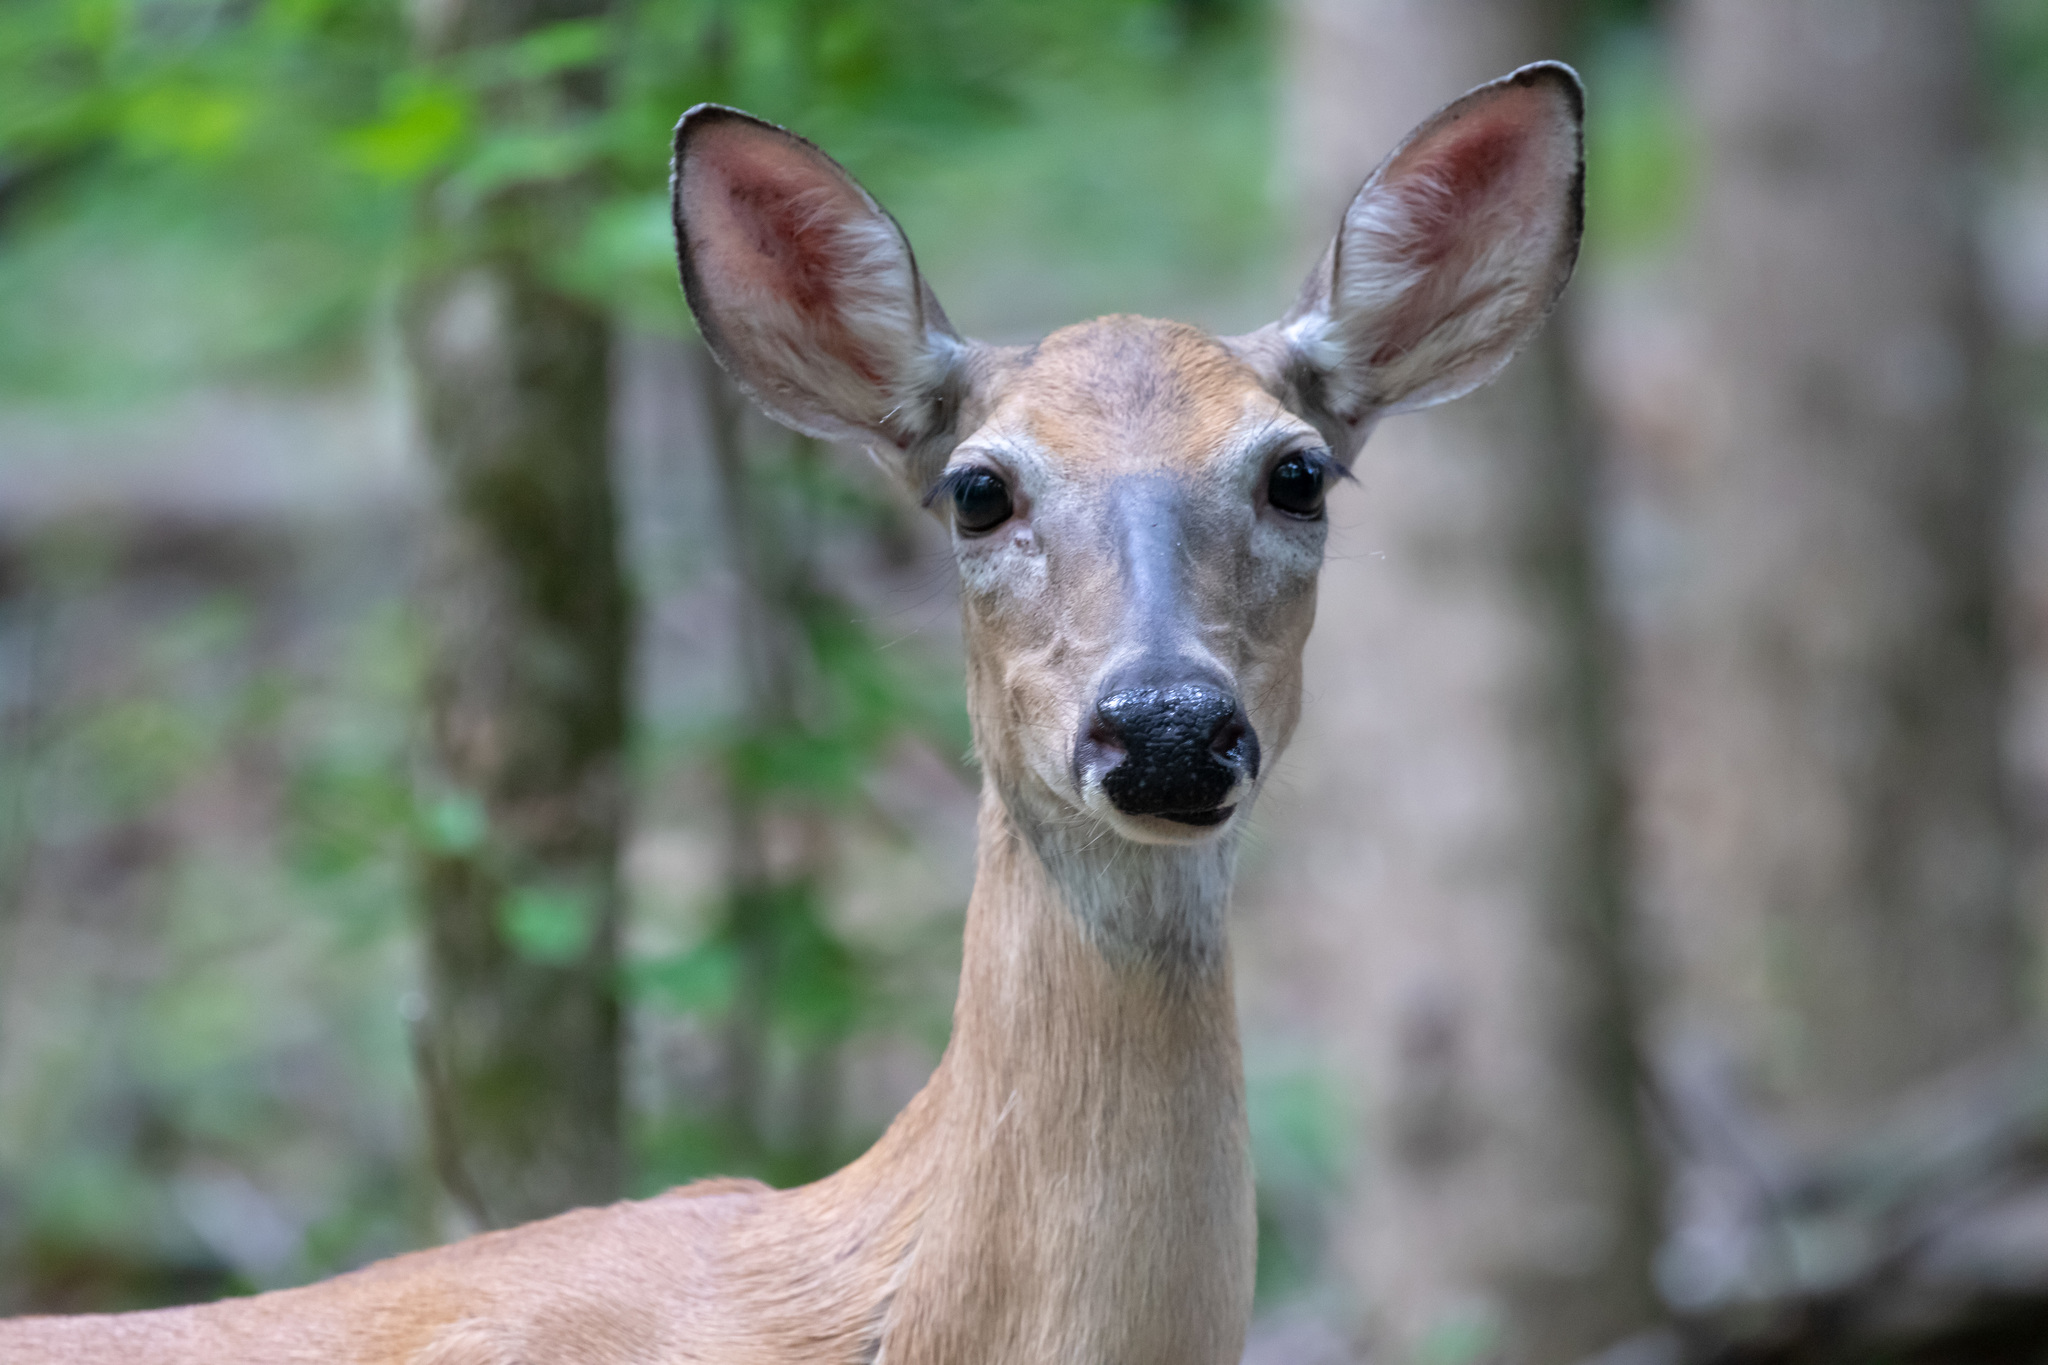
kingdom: Animalia
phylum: Chordata
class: Mammalia
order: Artiodactyla
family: Cervidae
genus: Odocoileus
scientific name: Odocoileus virginianus
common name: White-tailed deer
